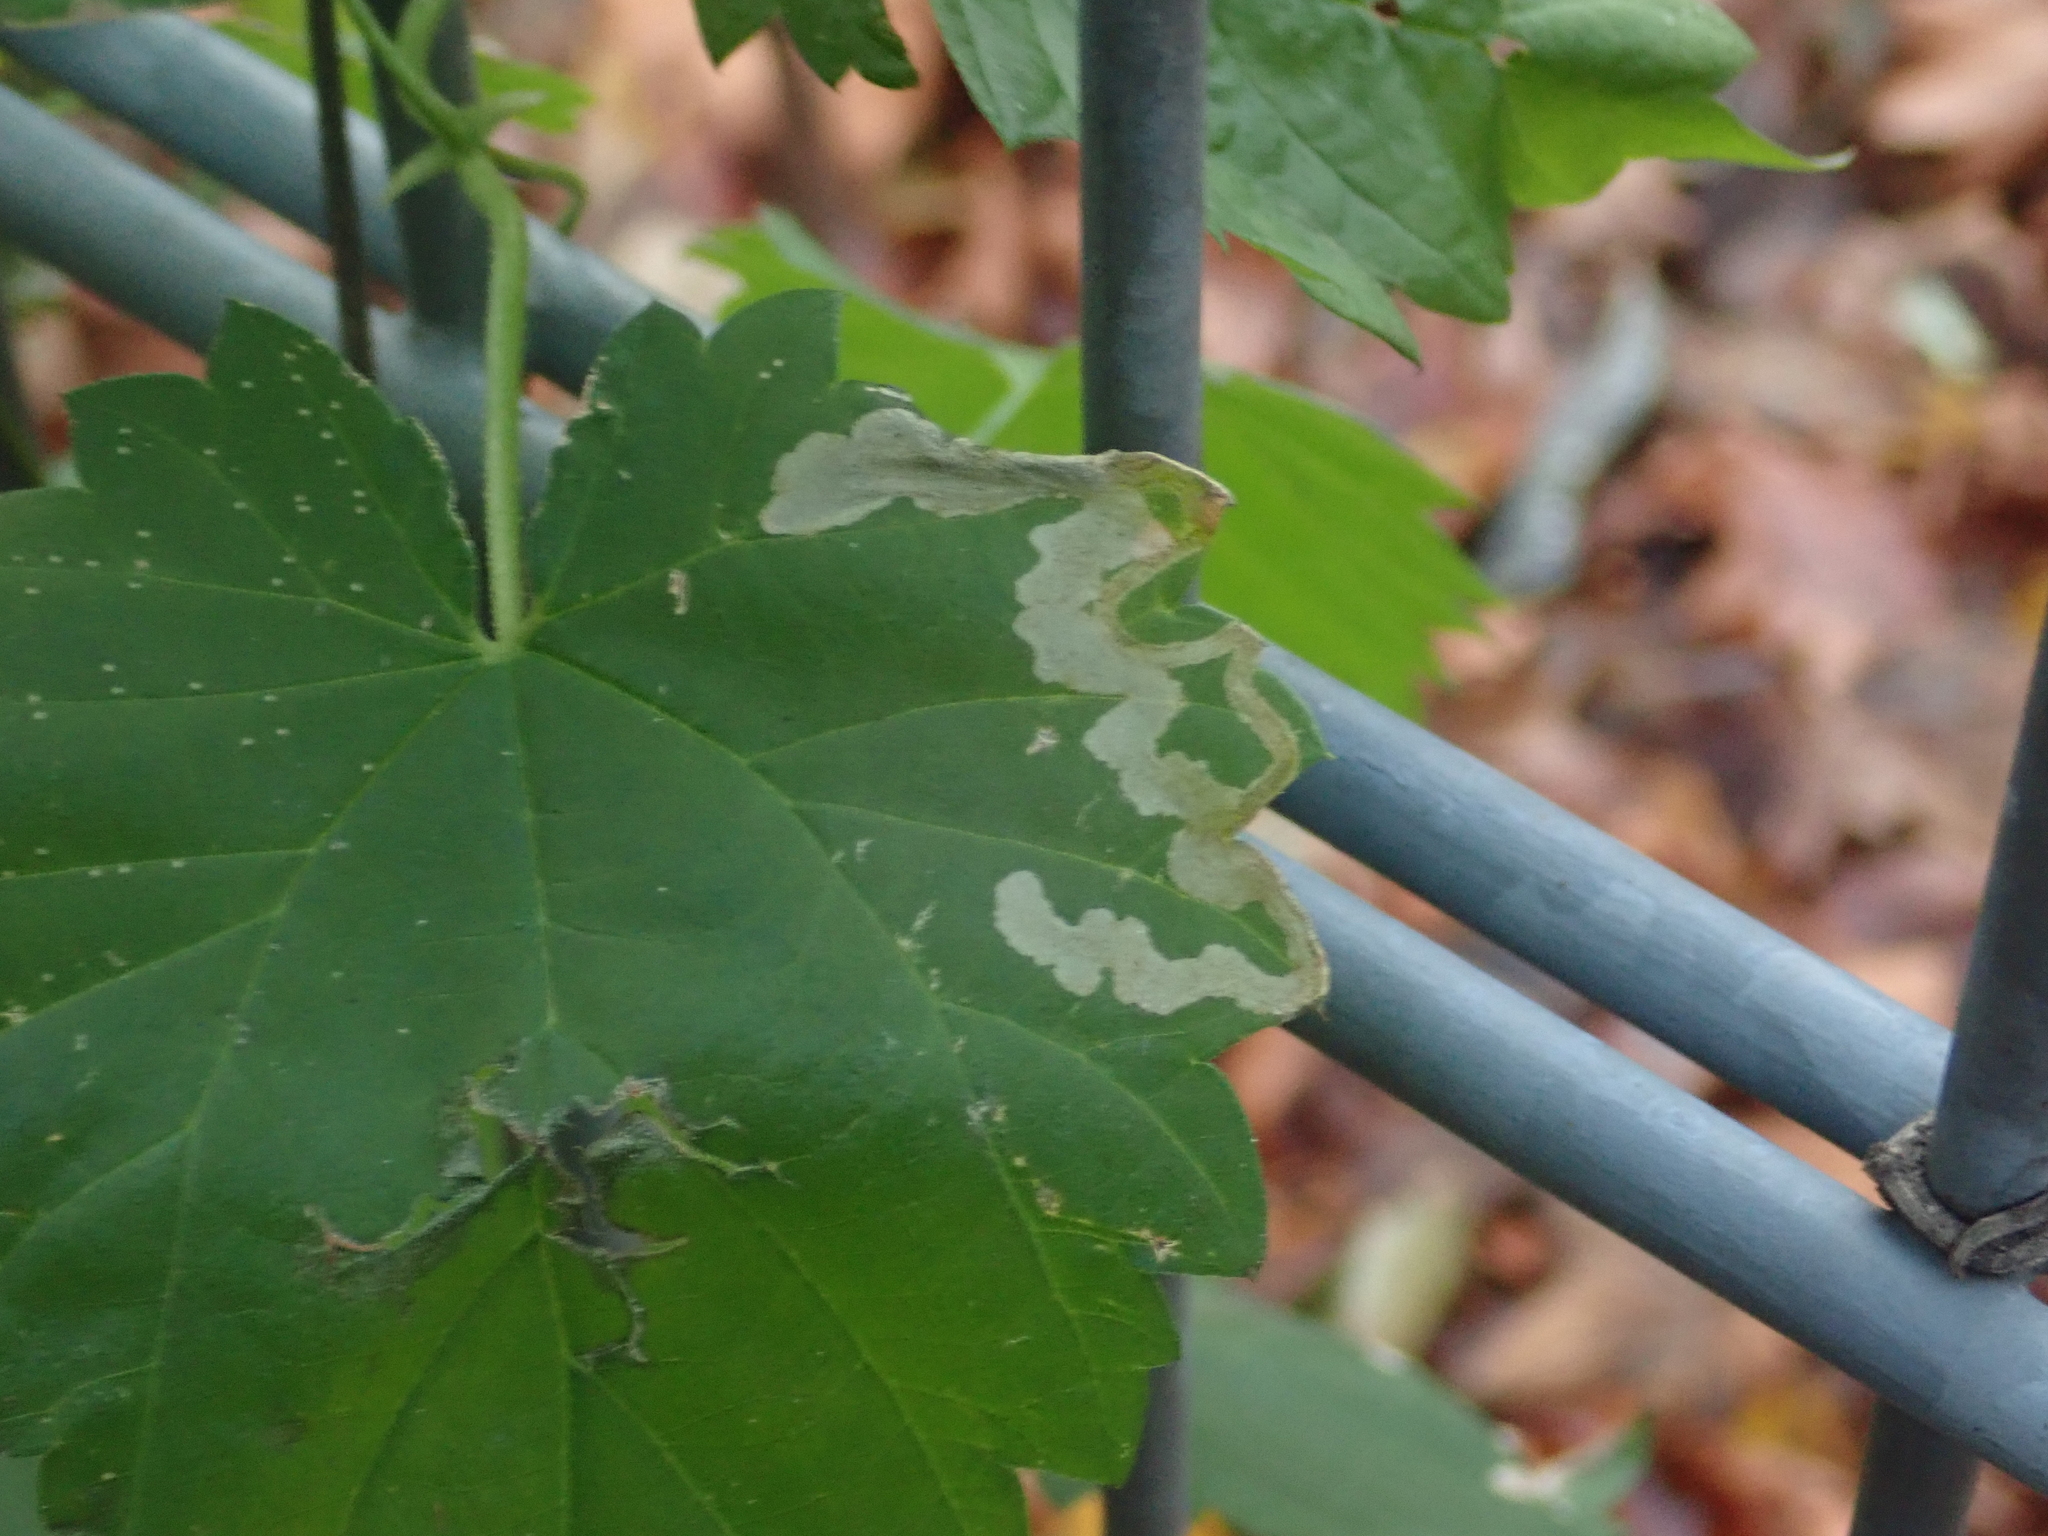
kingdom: Animalia
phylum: Arthropoda
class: Insecta
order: Diptera
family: Agromyzidae
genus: Agromyza
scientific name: Agromyza flaviceps
